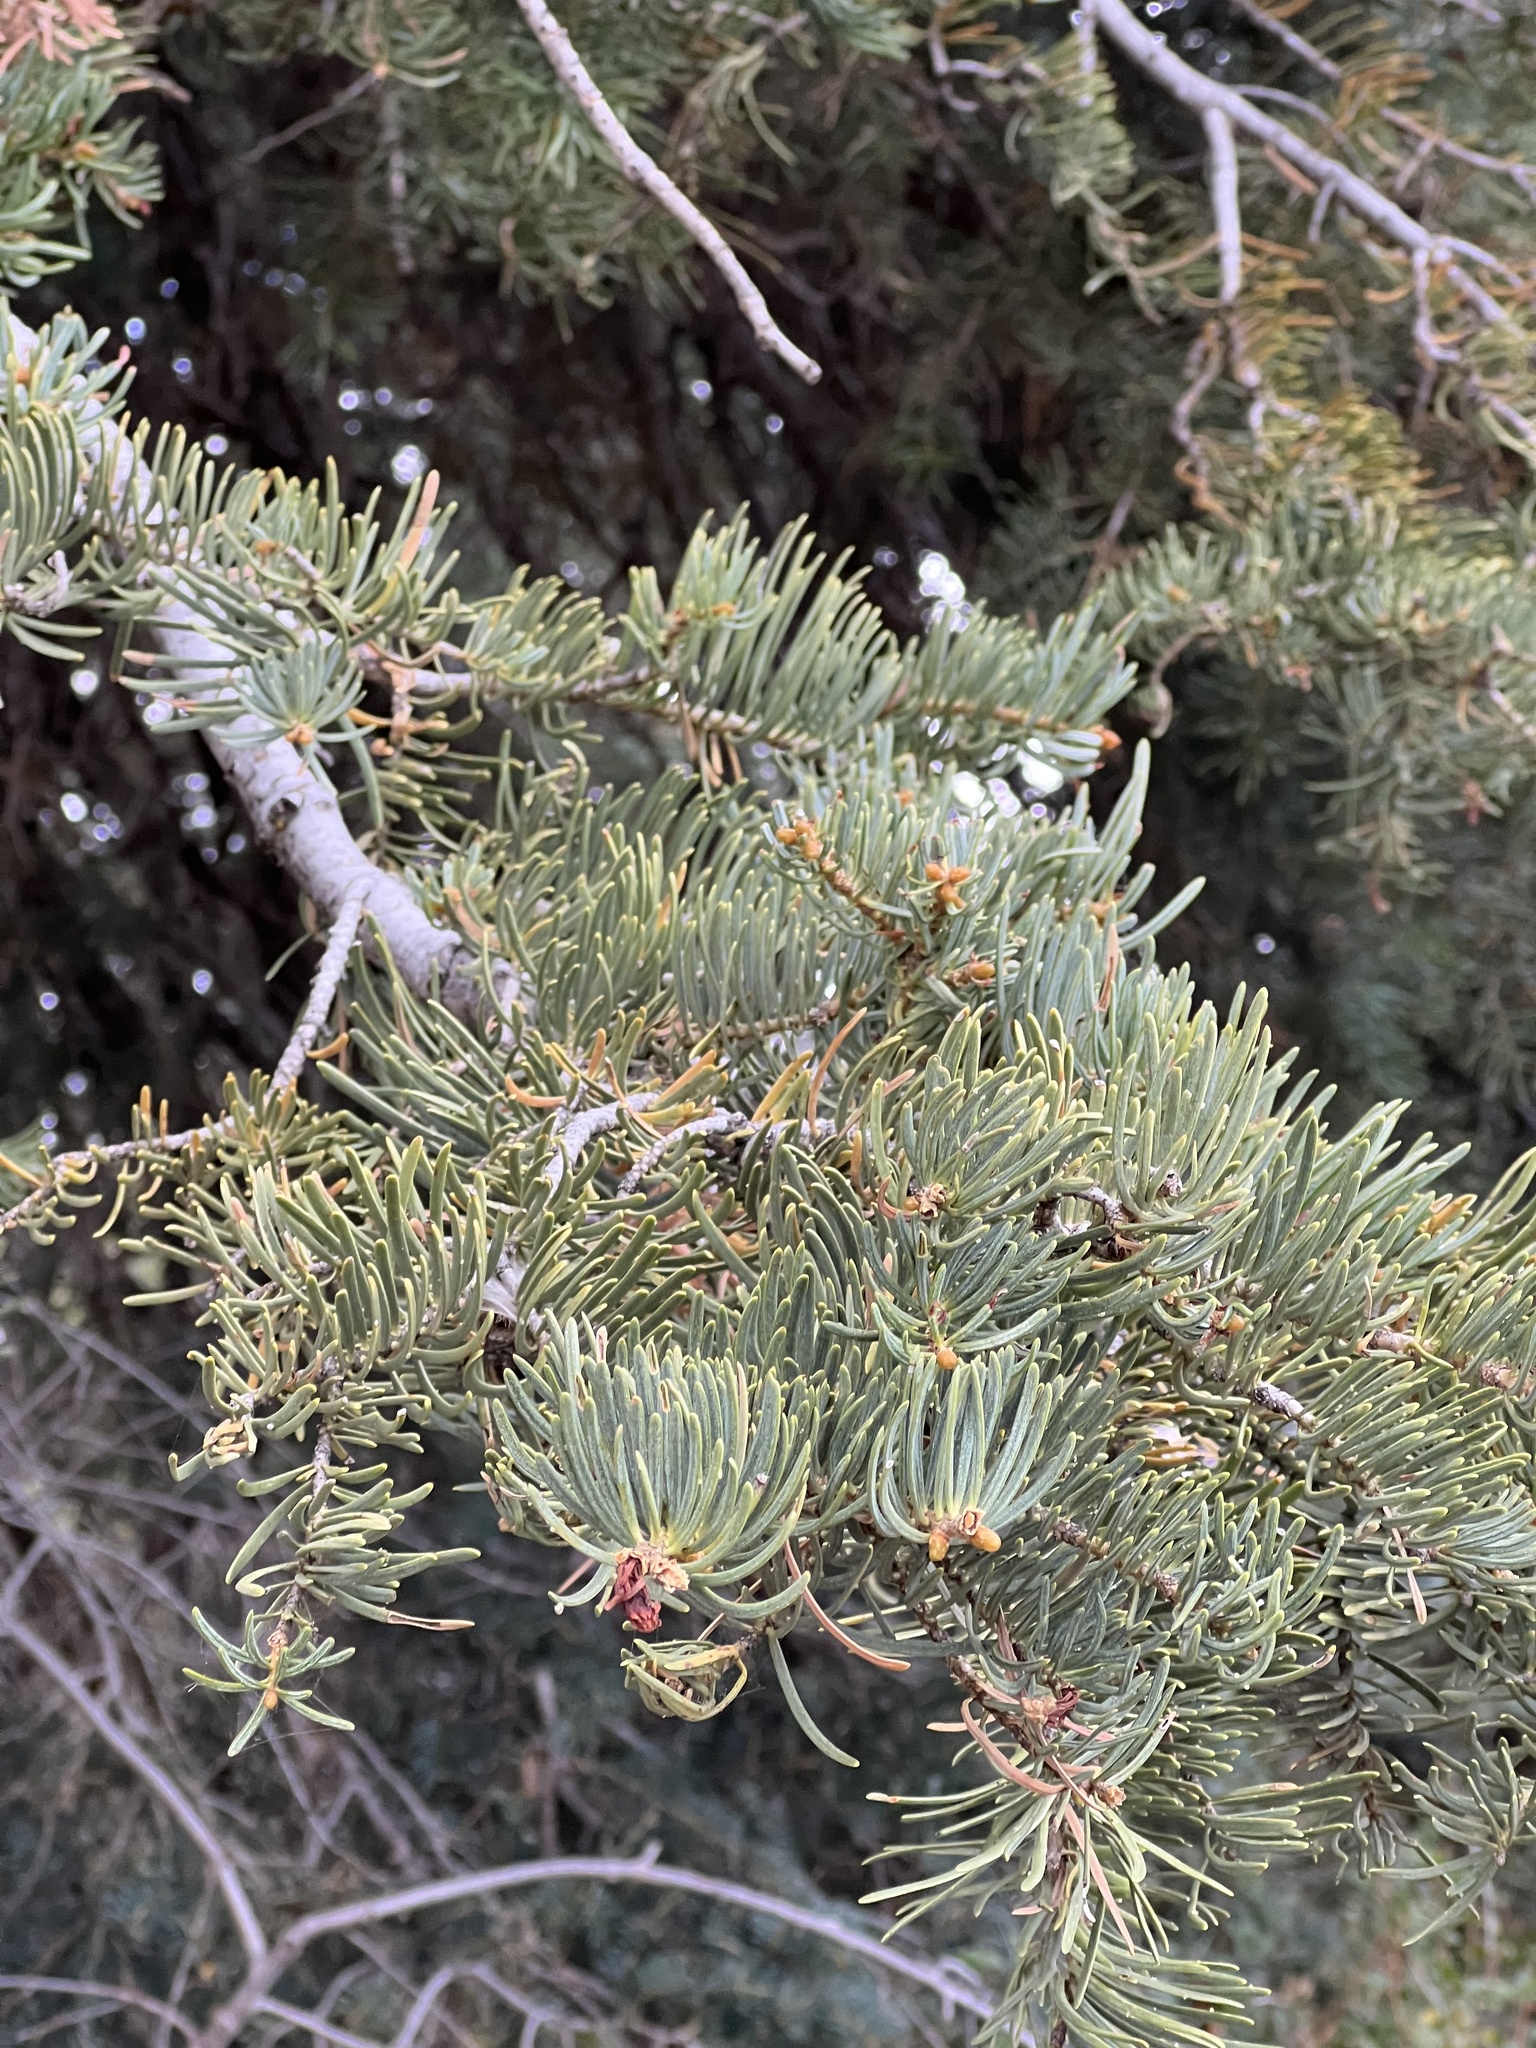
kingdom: Plantae
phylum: Tracheophyta
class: Pinopsida
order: Pinales
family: Pinaceae
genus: Abies
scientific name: Abies concolor
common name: Colorado fir
